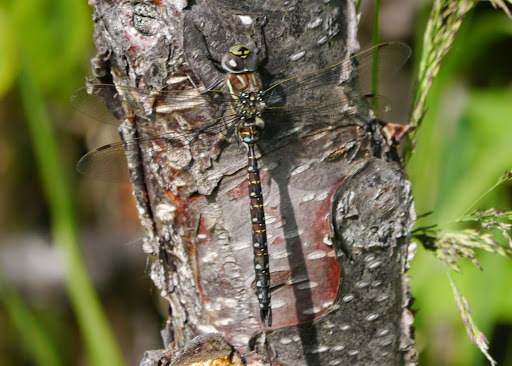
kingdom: Animalia
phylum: Arthropoda
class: Insecta
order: Odonata
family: Aeshnidae
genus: Aeshna
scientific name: Aeshna juncea
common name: Moorland hawker
